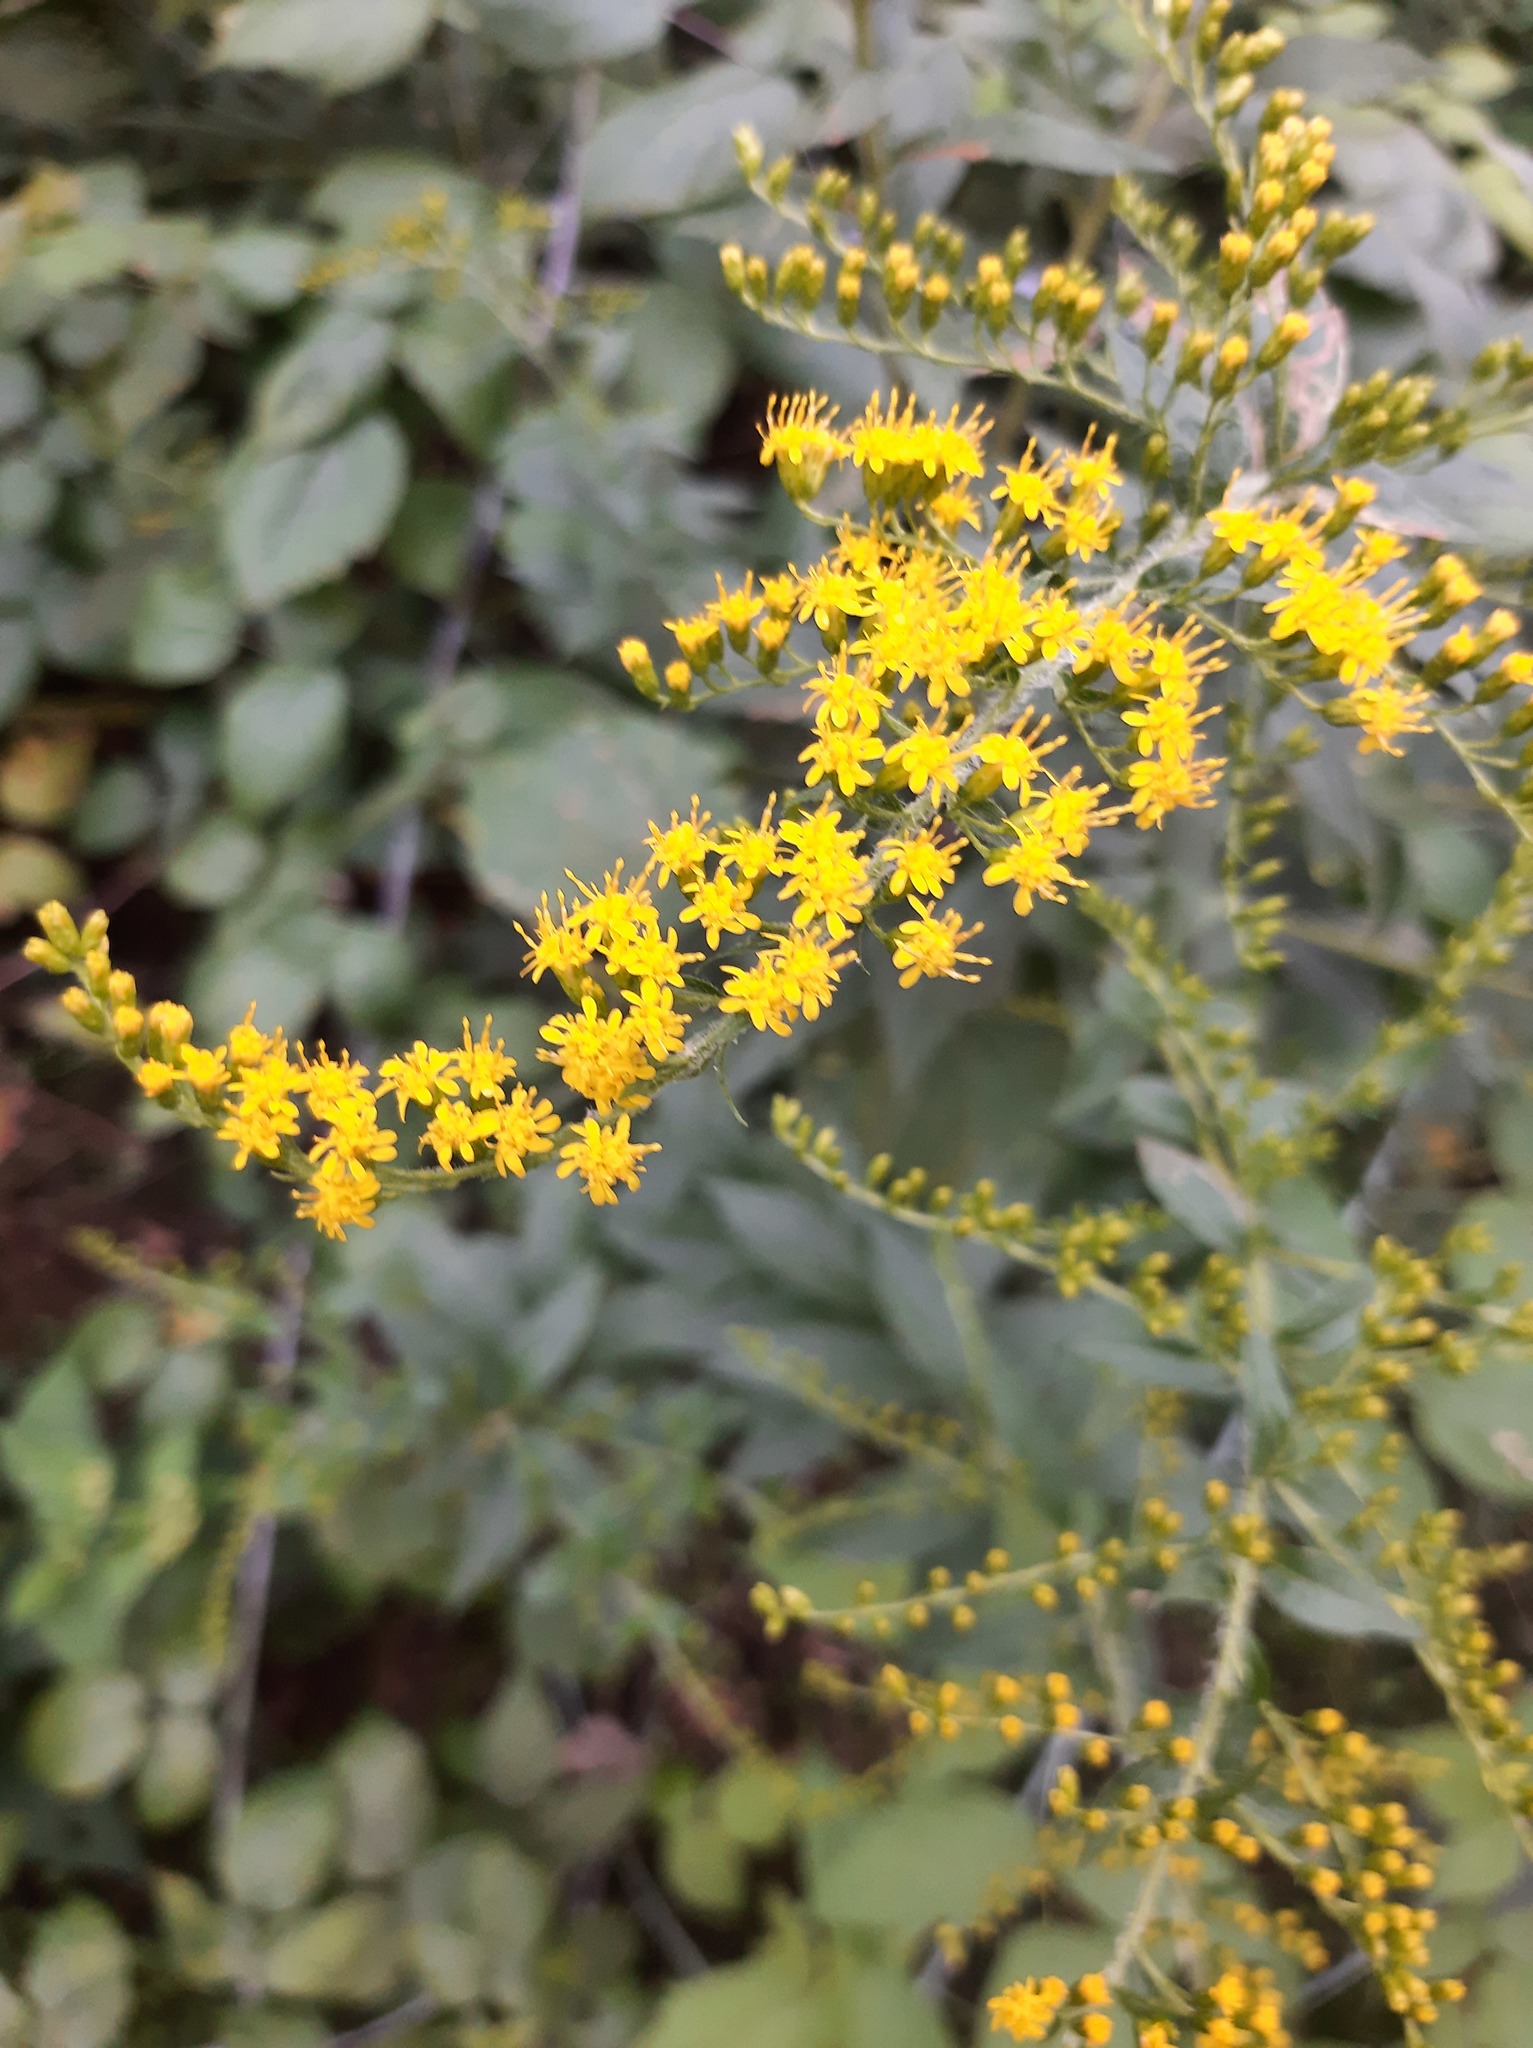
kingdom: Plantae
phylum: Tracheophyta
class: Magnoliopsida
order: Asterales
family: Asteraceae
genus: Solidago
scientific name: Solidago rugosa
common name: Rough-stemmed goldenrod
